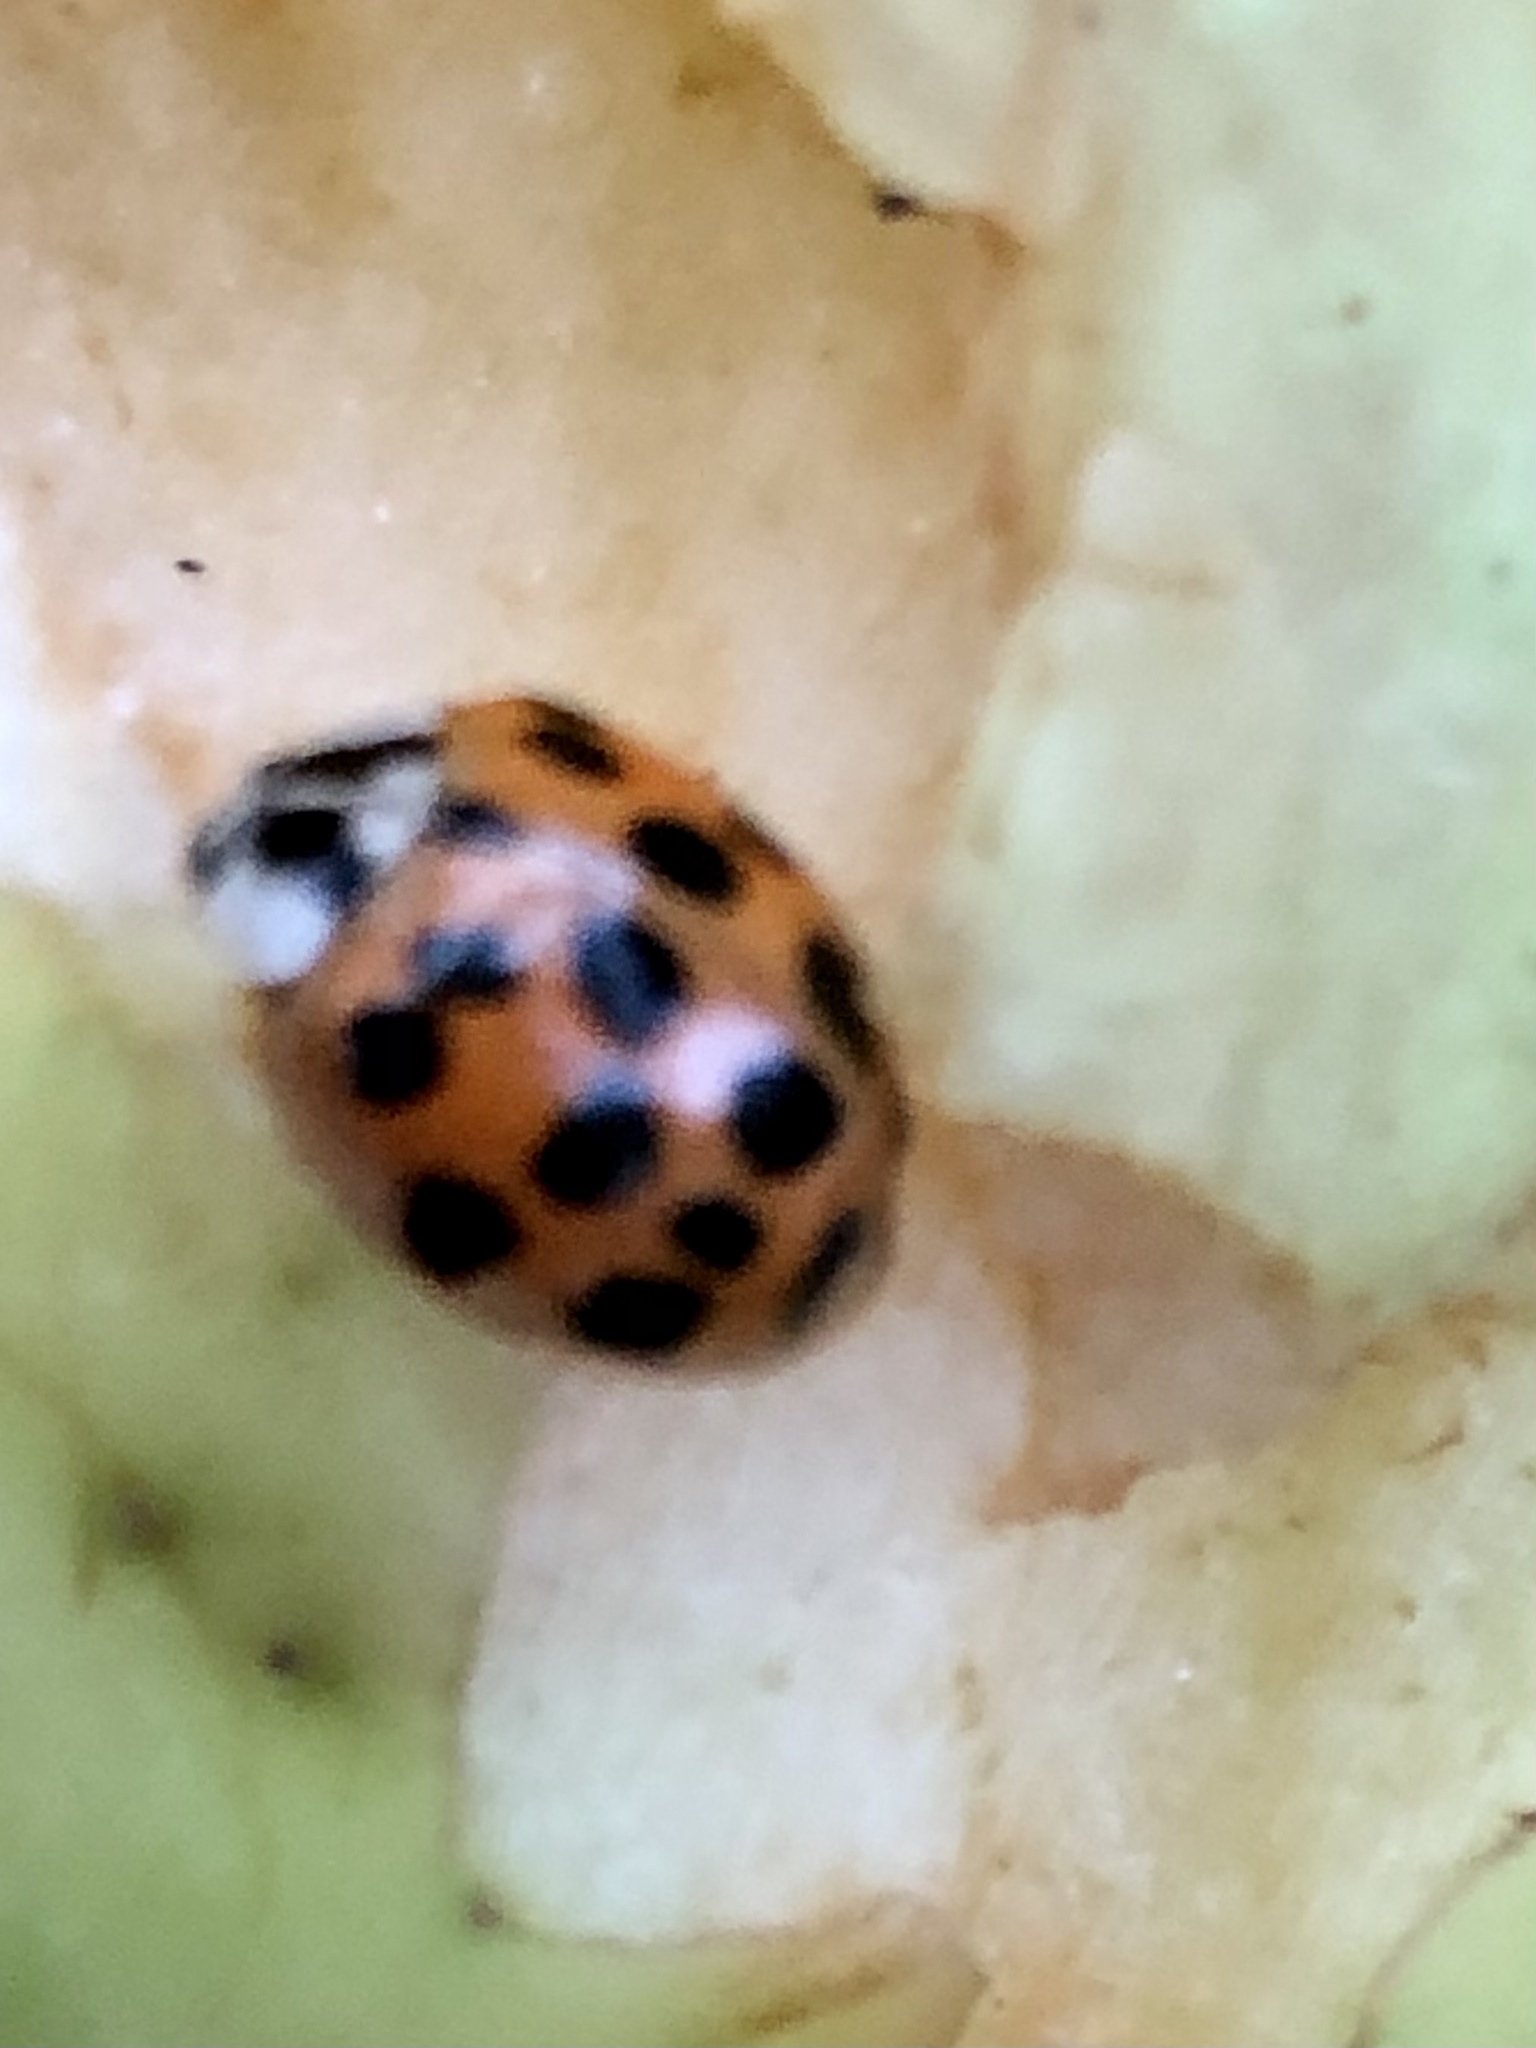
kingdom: Animalia
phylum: Arthropoda
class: Insecta
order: Coleoptera
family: Coccinellidae
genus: Harmonia
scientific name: Harmonia axyridis
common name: Harlequin ladybird
